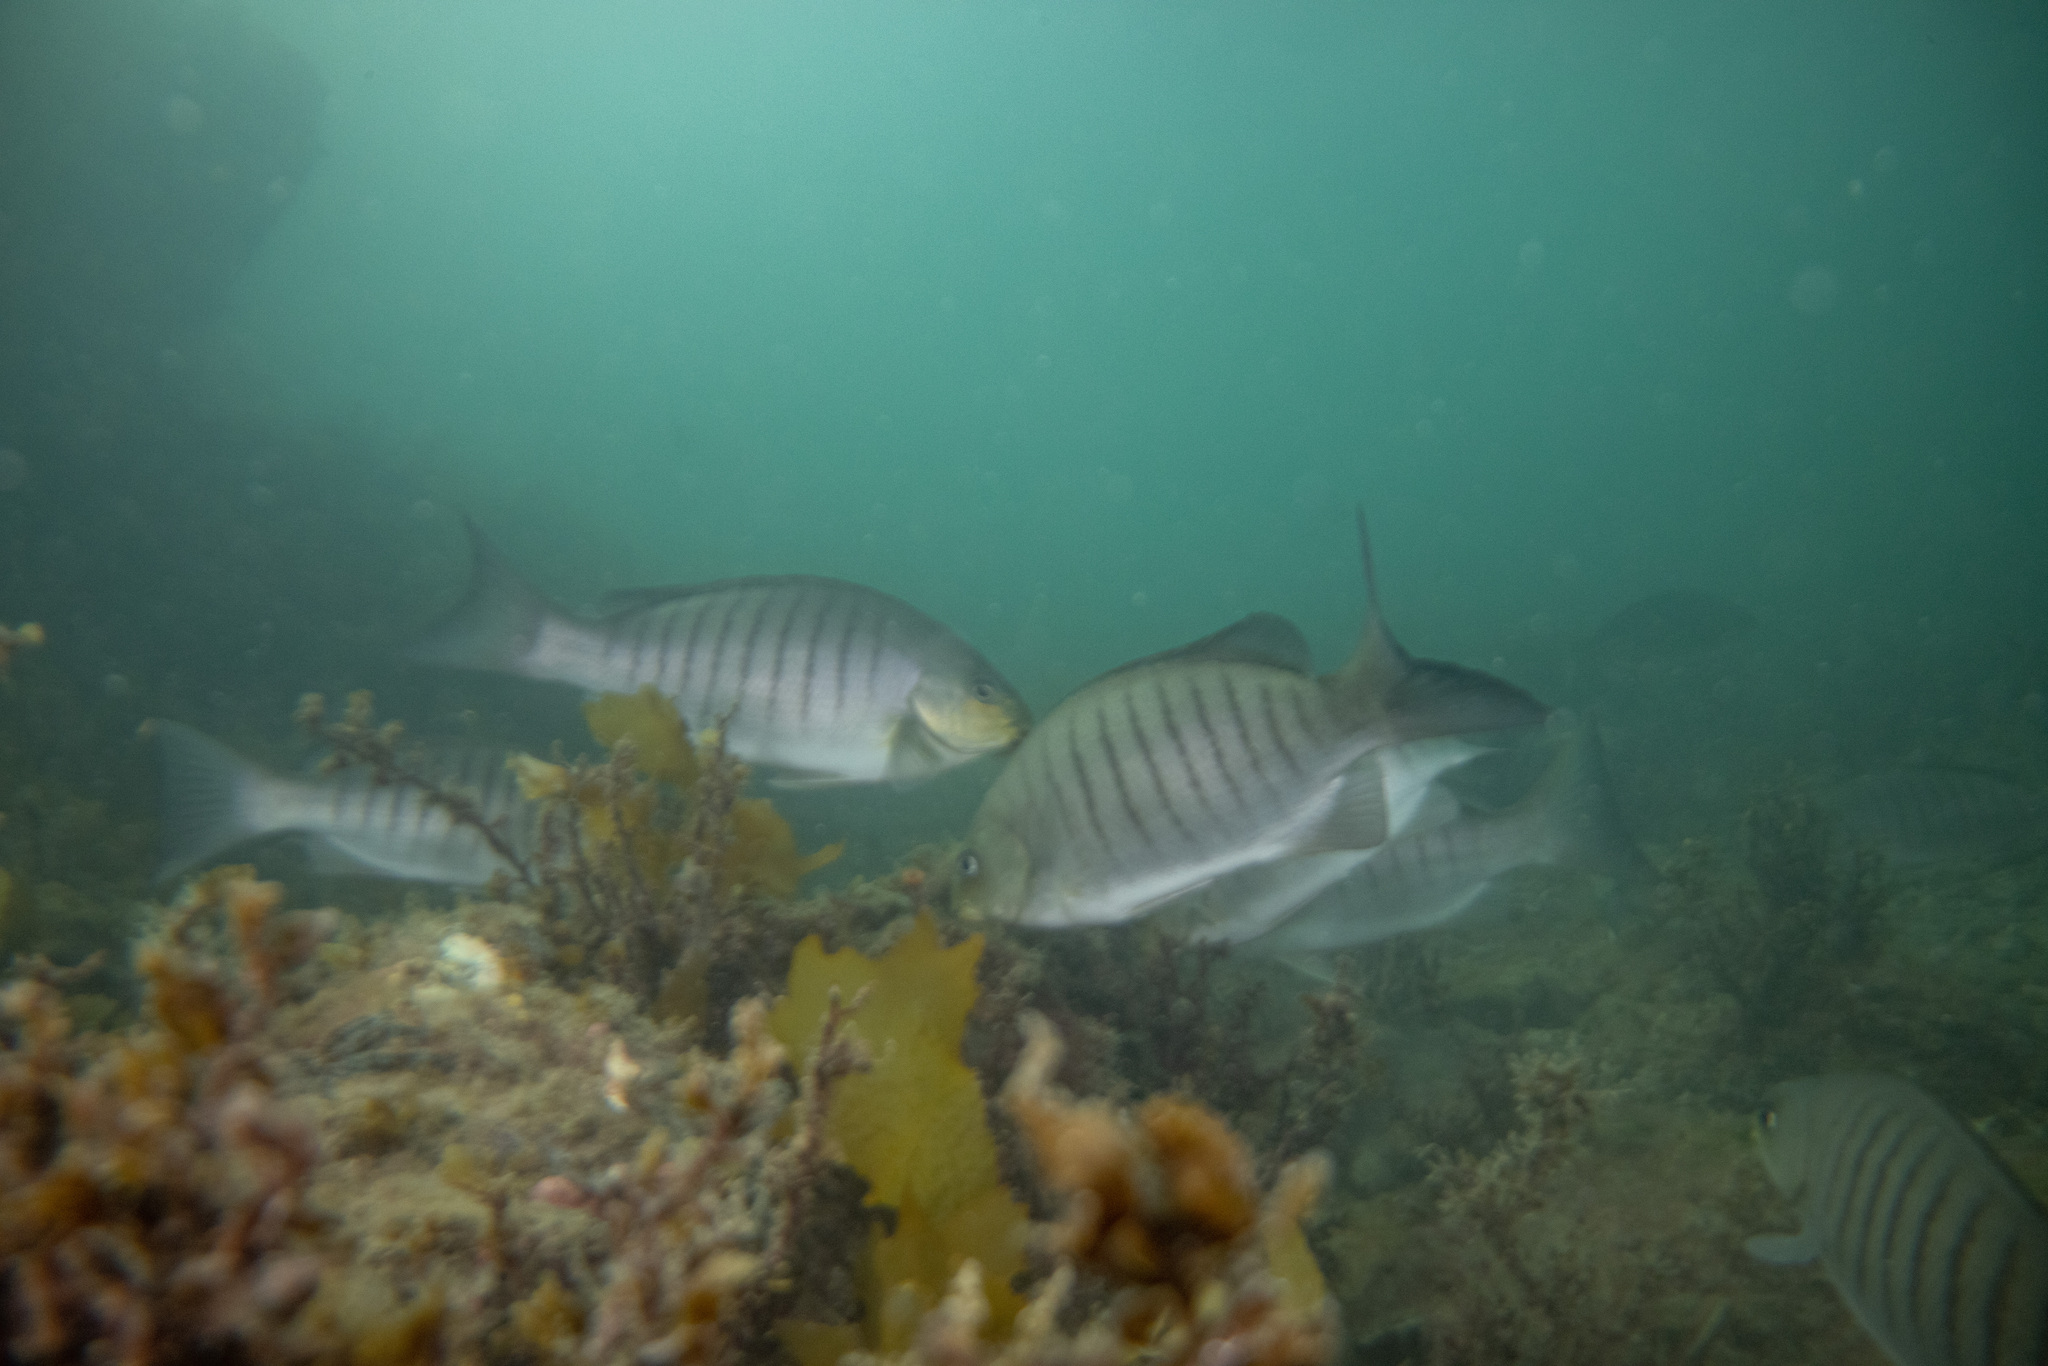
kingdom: Animalia
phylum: Chordata
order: Perciformes
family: Kyphosidae
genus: Girella
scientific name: Girella tricuspidata
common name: Parore
